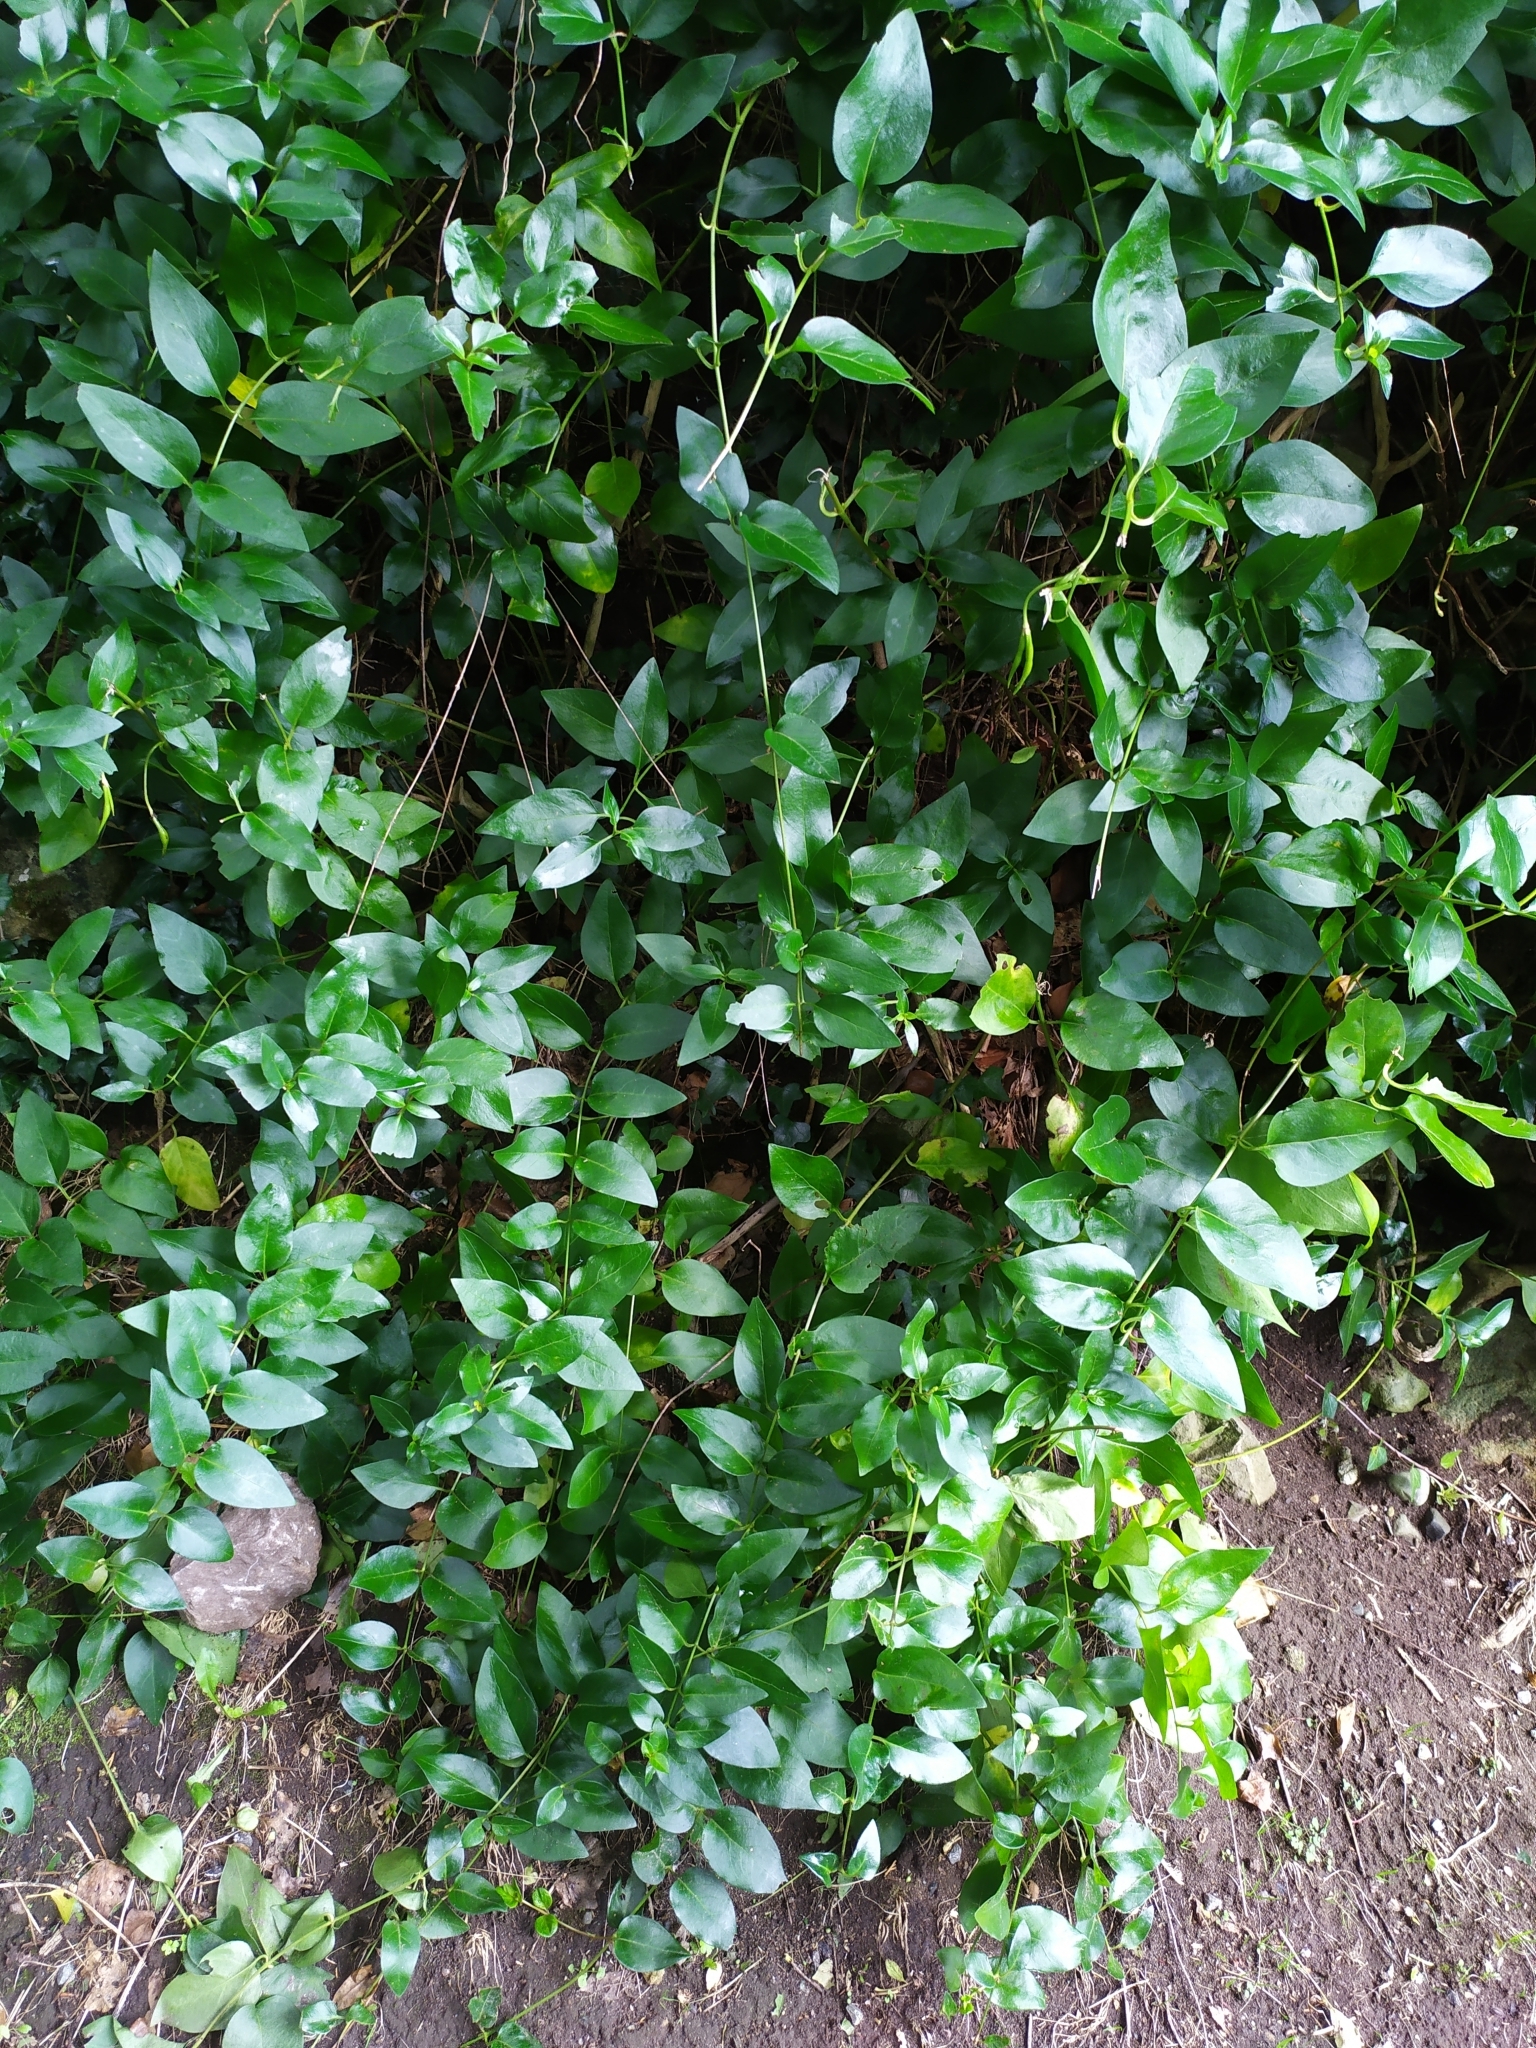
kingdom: Plantae
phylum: Tracheophyta
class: Magnoliopsida
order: Gentianales
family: Apocynaceae
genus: Vinca
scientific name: Vinca major
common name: Greater periwinkle
